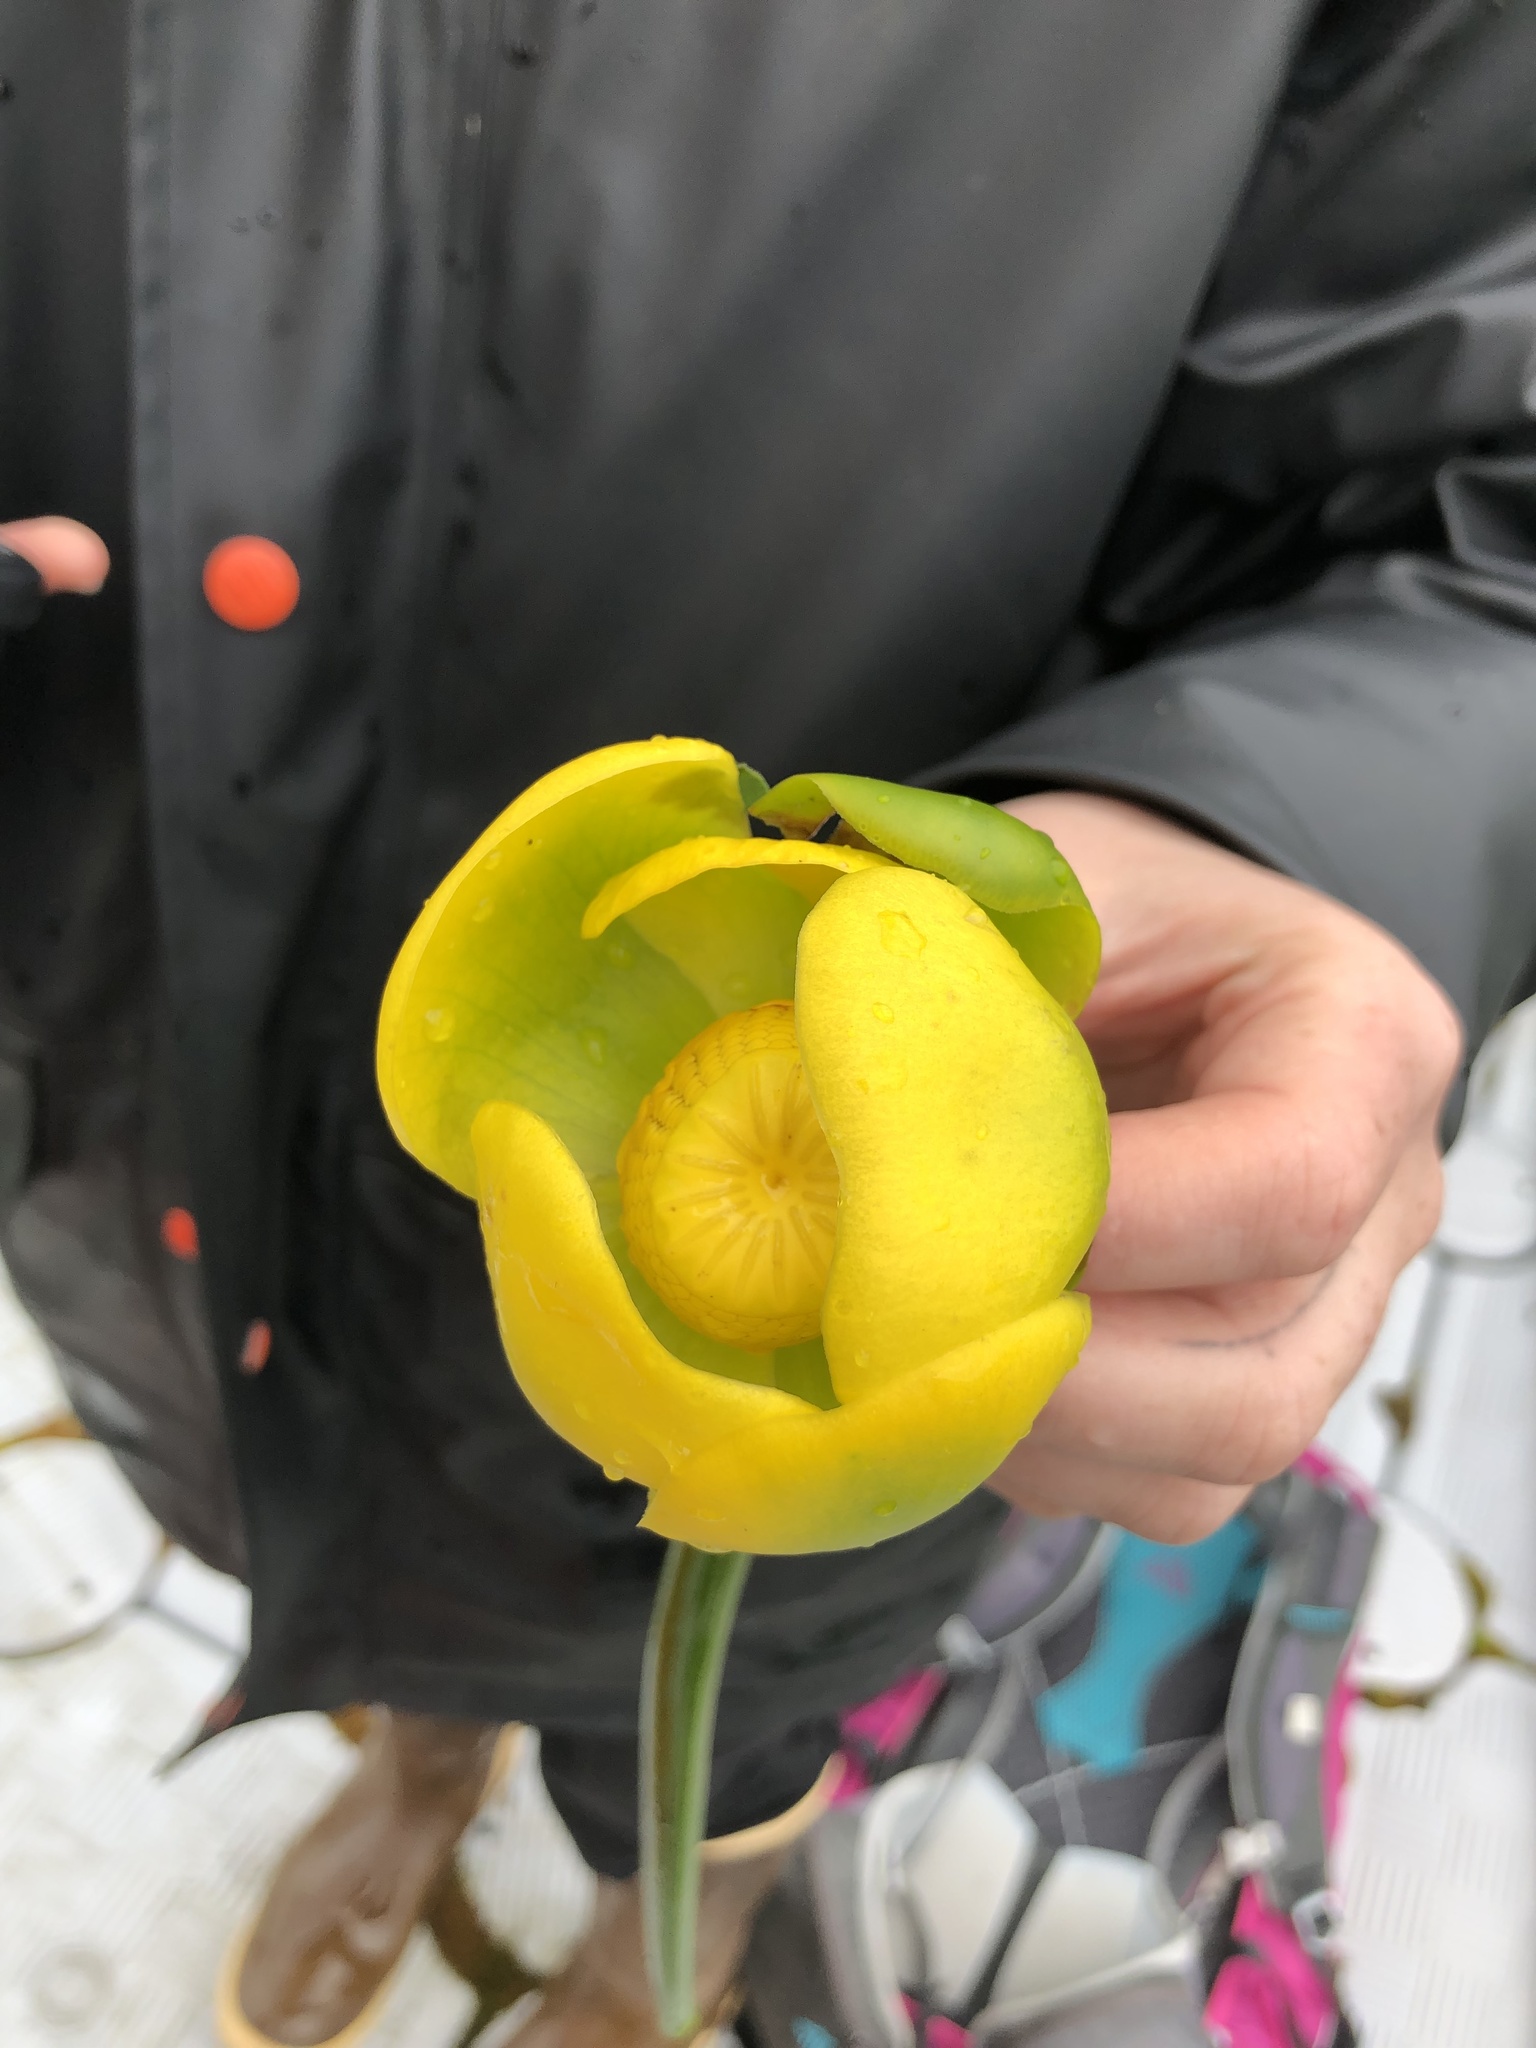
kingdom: Plantae
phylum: Tracheophyta
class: Magnoliopsida
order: Nymphaeales
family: Nymphaeaceae
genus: Nuphar
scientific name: Nuphar polysepala
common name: Rocky mountain cow-lily
